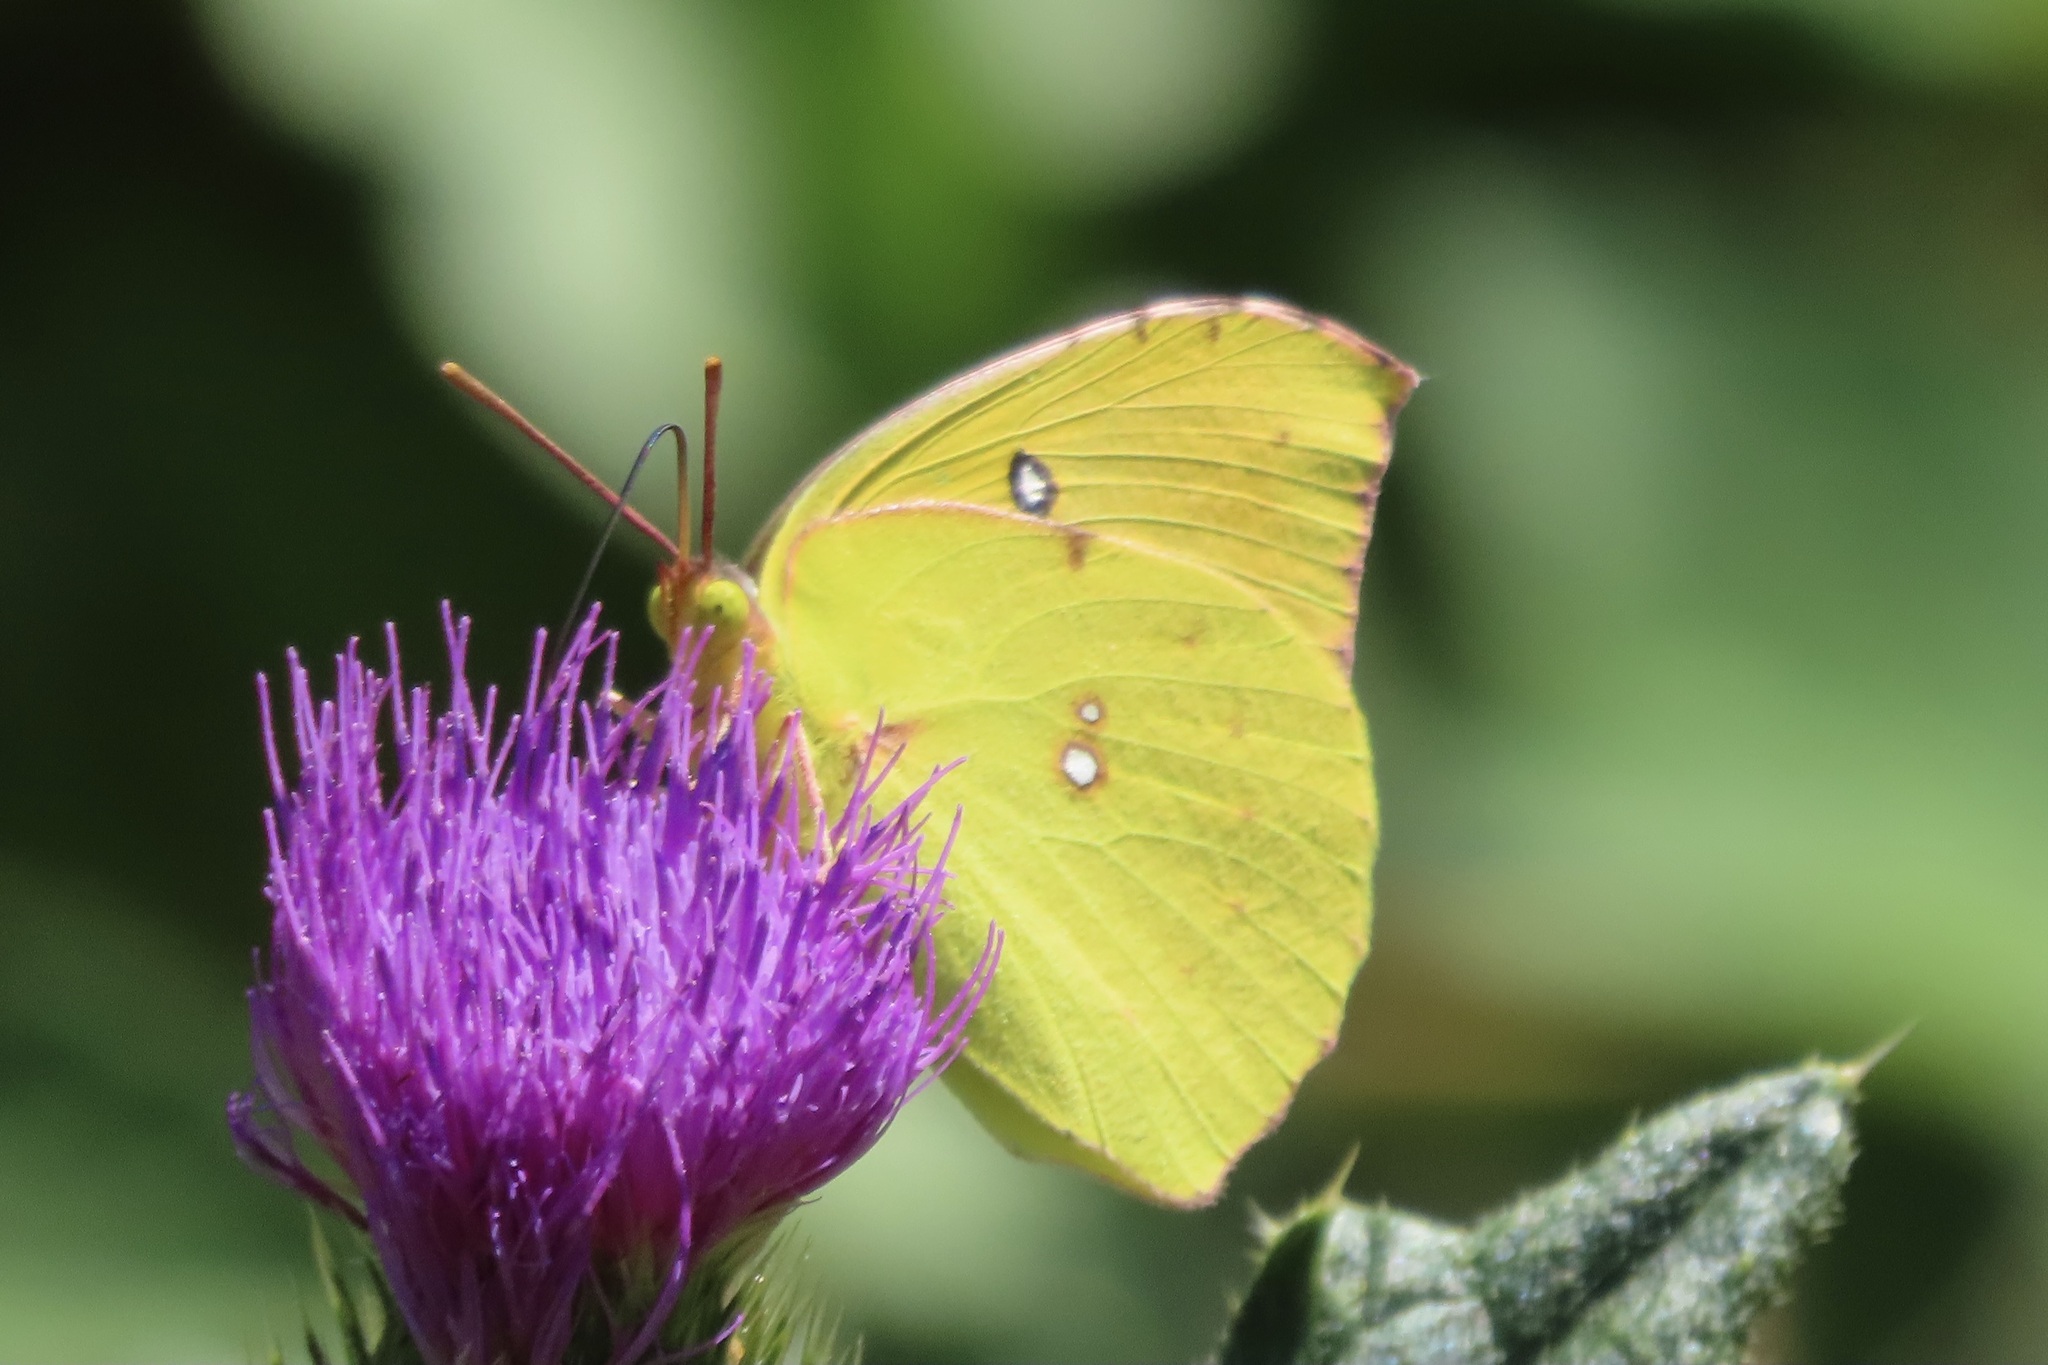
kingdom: Animalia
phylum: Arthropoda
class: Insecta
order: Lepidoptera
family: Pieridae
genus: Zerene
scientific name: Zerene eurydice
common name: California dogface
